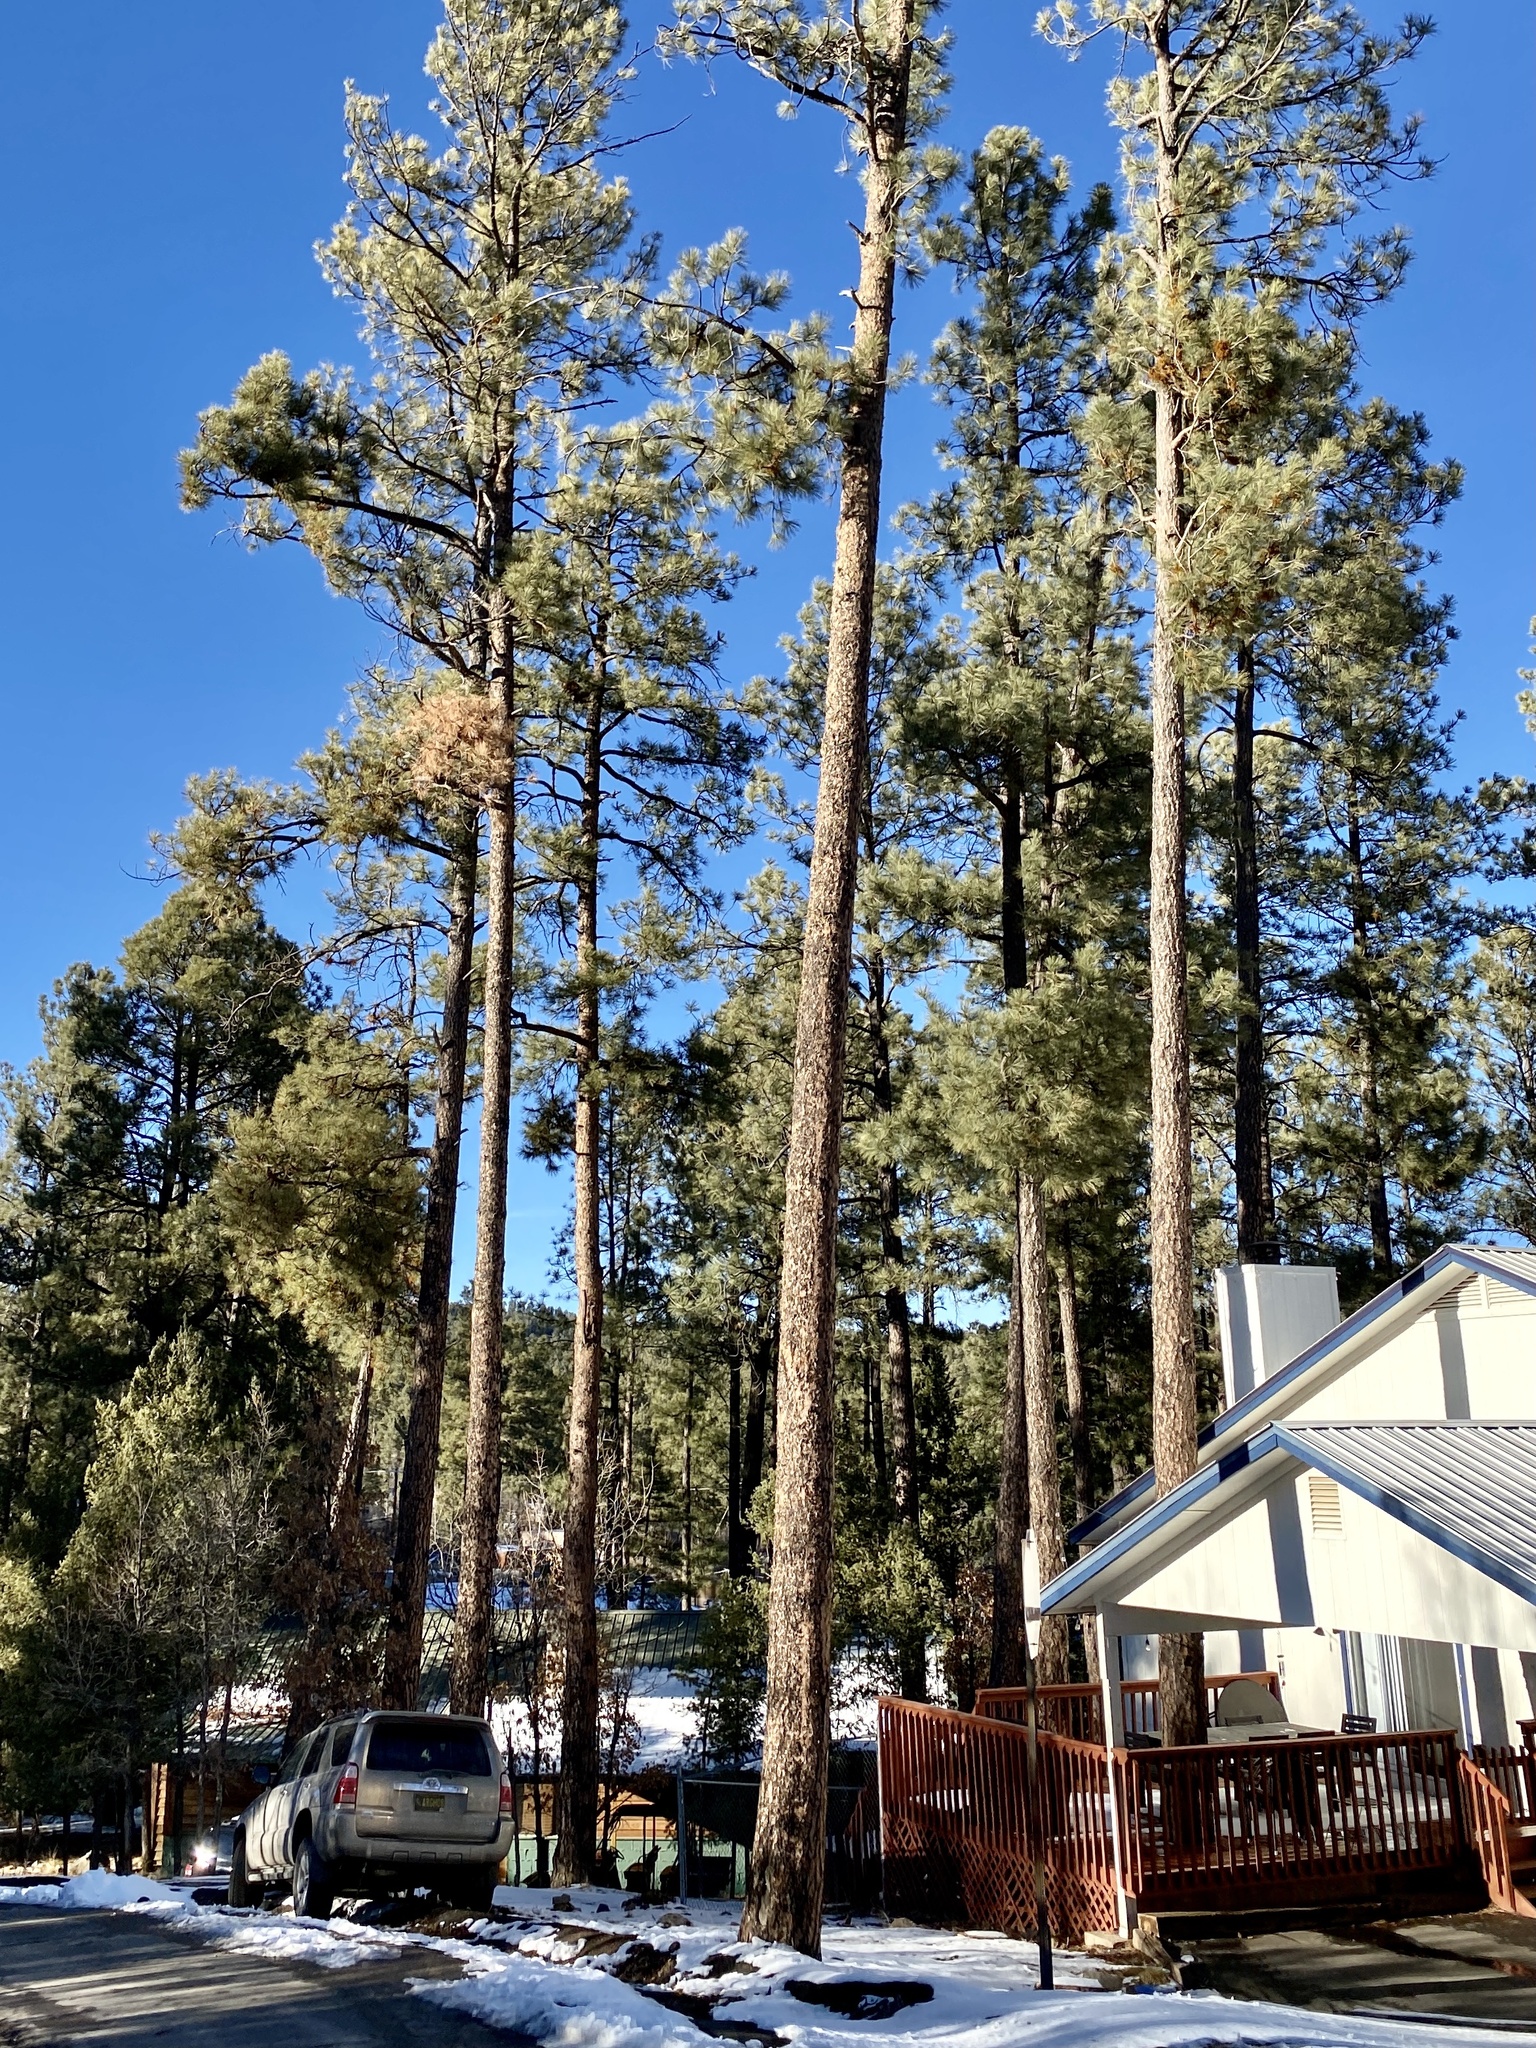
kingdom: Plantae
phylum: Tracheophyta
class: Pinopsida
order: Pinales
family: Pinaceae
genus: Pinus
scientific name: Pinus ponderosa
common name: Western yellow-pine
